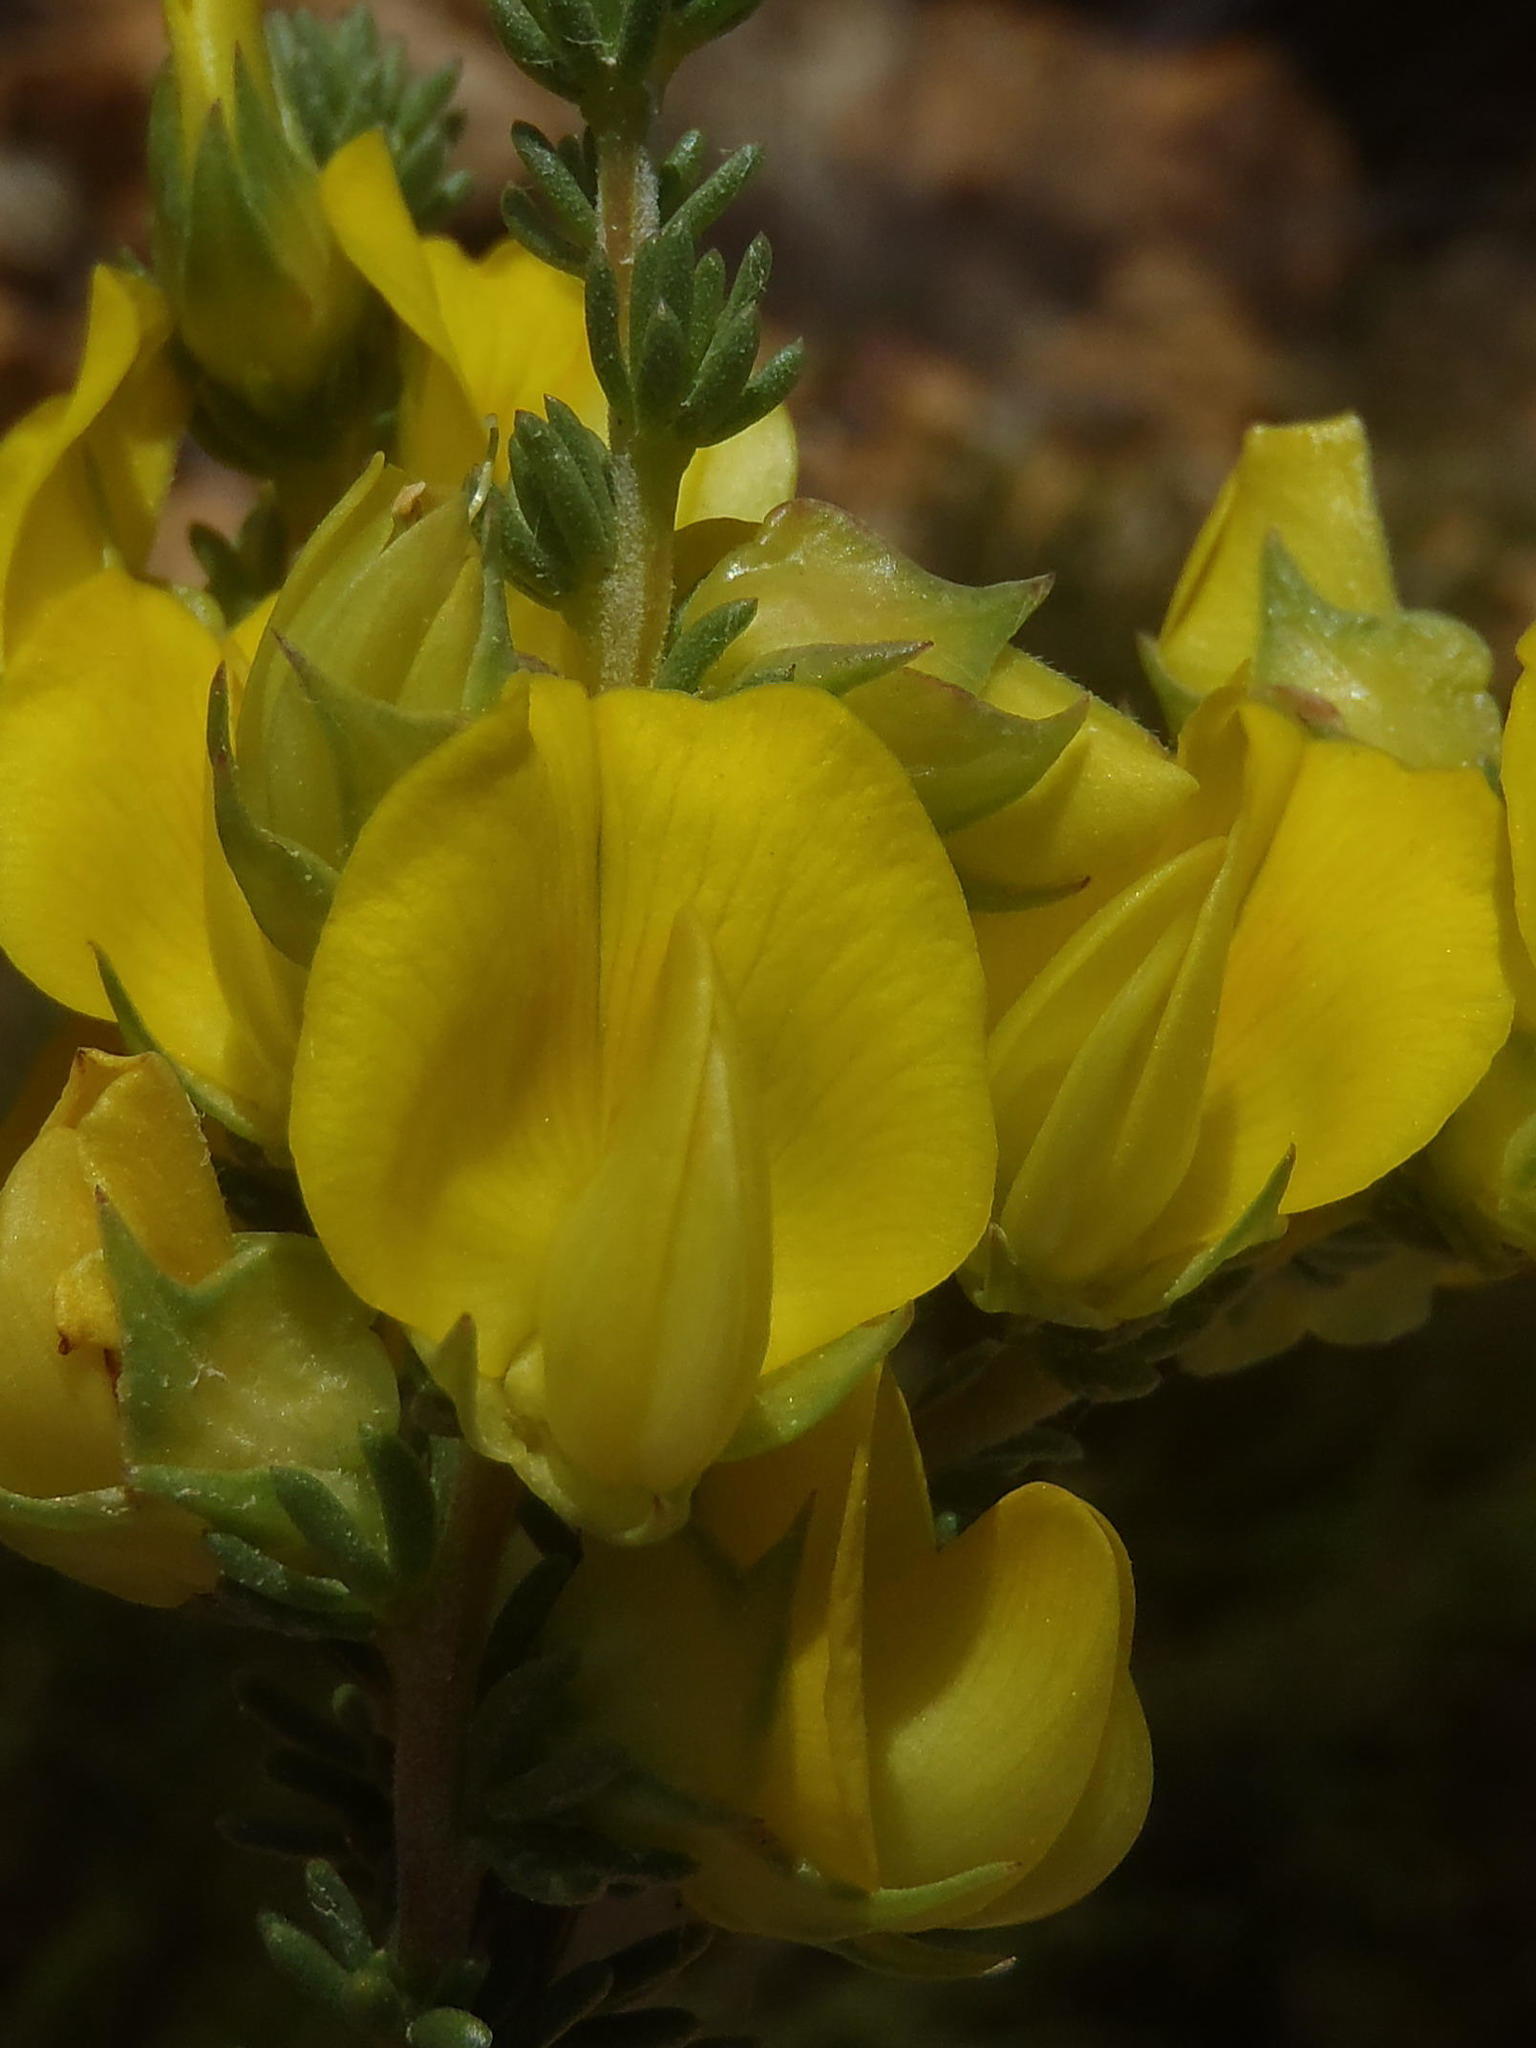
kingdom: Plantae
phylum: Tracheophyta
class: Magnoliopsida
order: Fabales
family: Fabaceae
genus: Aspalathus
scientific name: Aspalathus citrina
